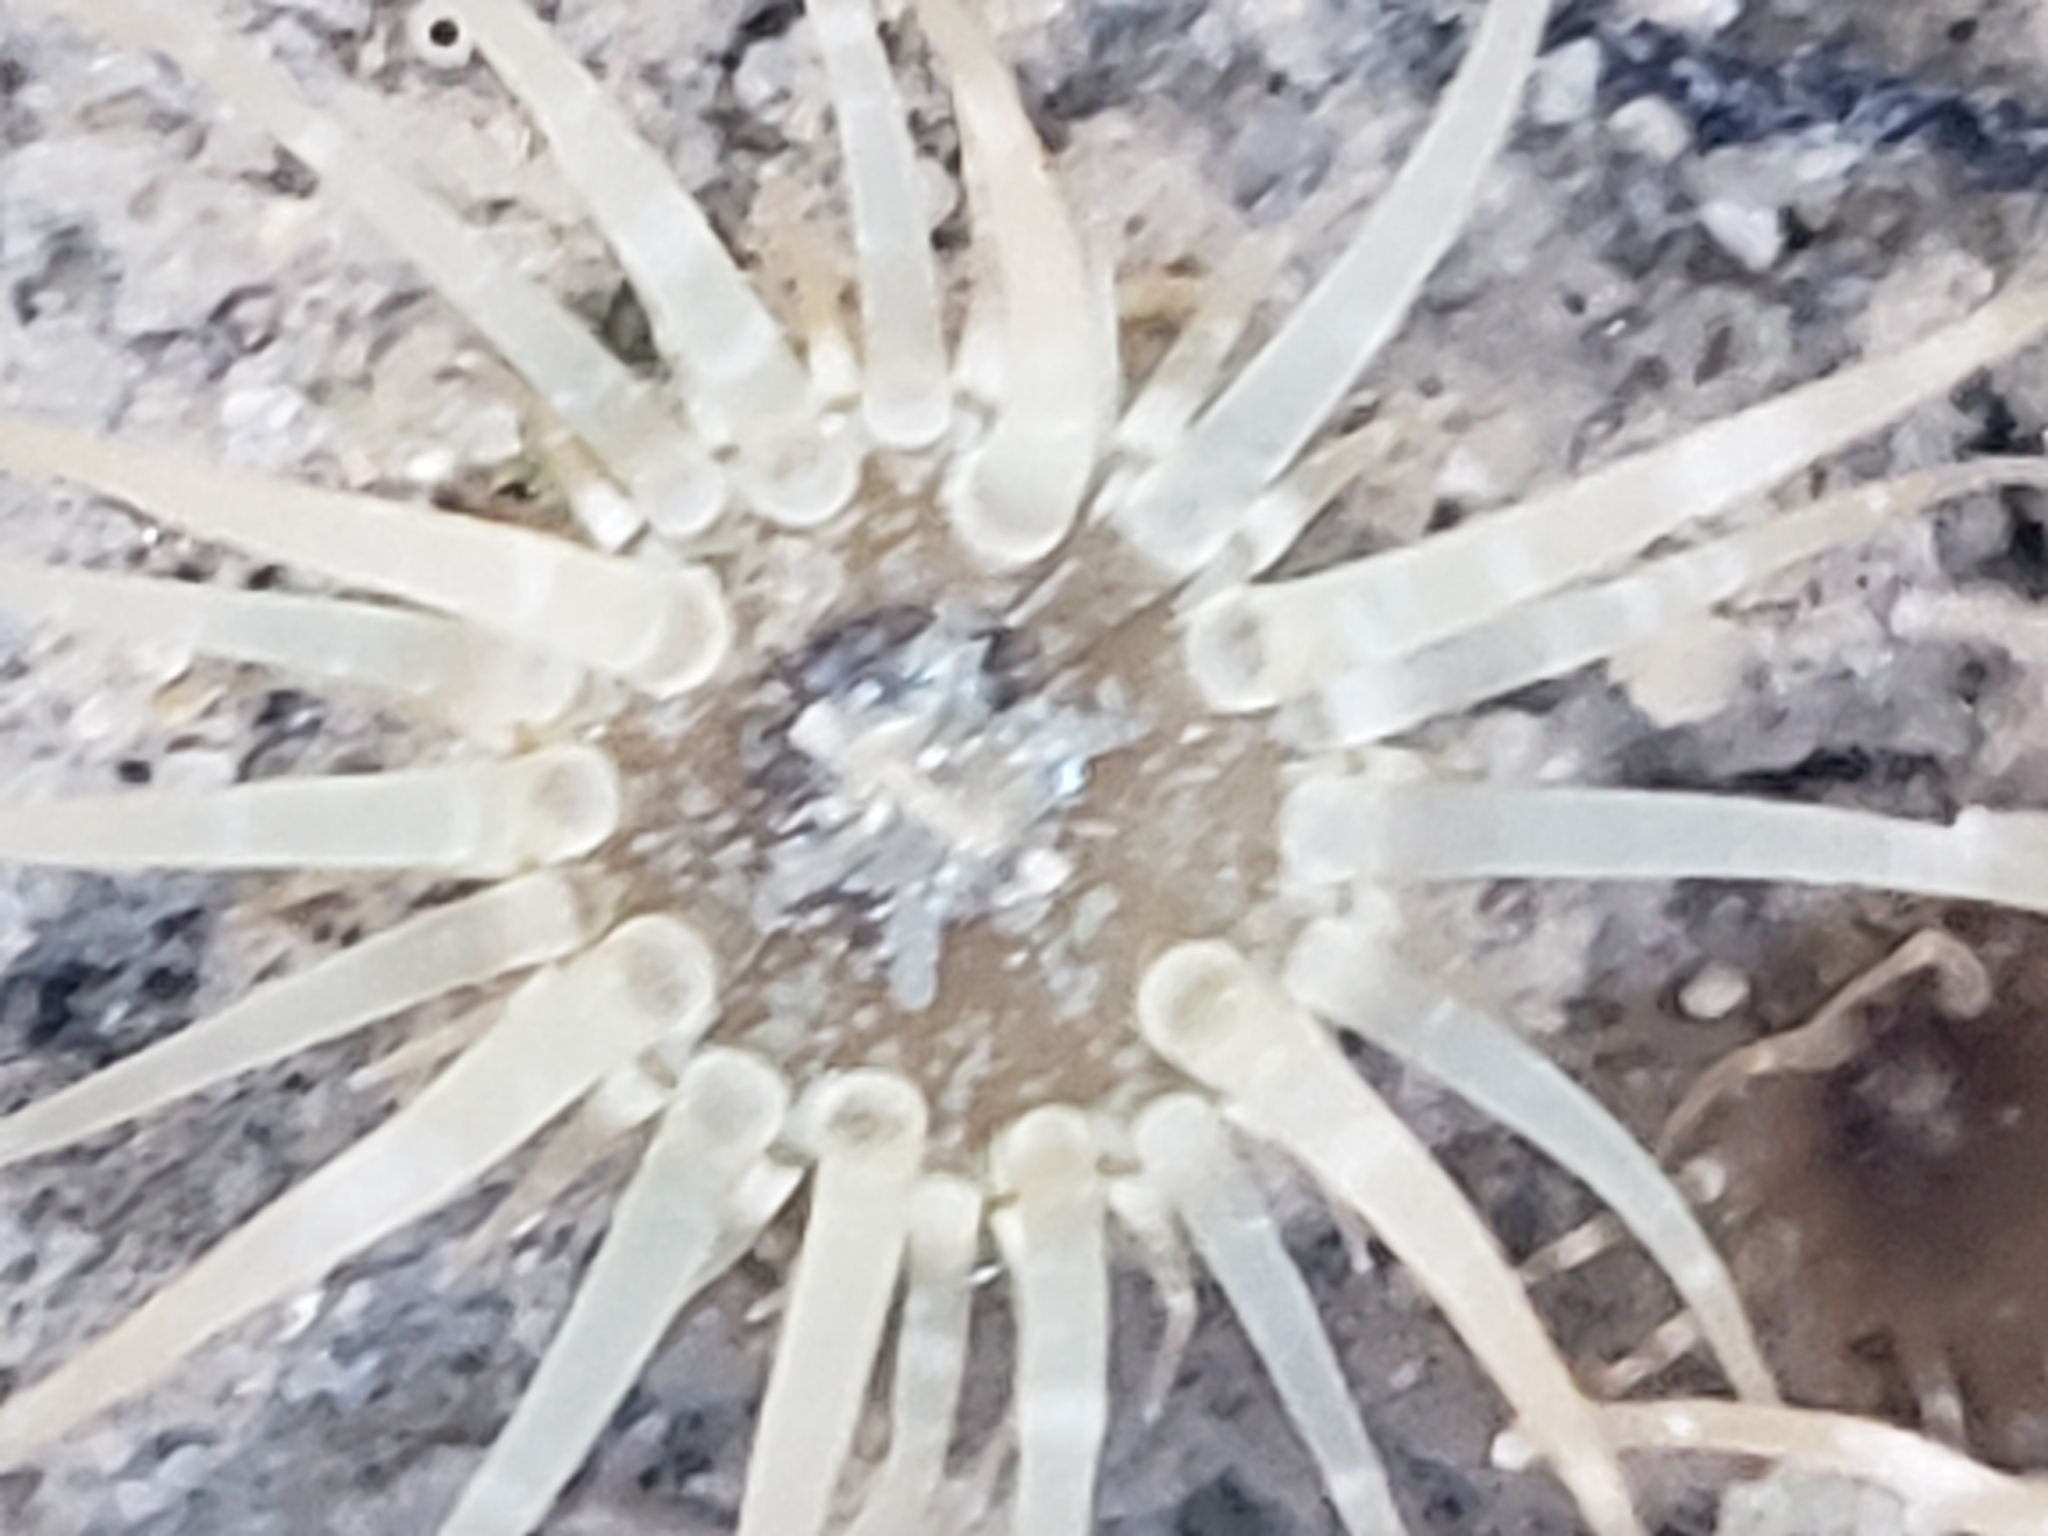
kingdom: Animalia
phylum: Cnidaria
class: Anthozoa
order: Actiniaria
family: Aiptasiidae
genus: Exaiptasia
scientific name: Exaiptasia diaphana
